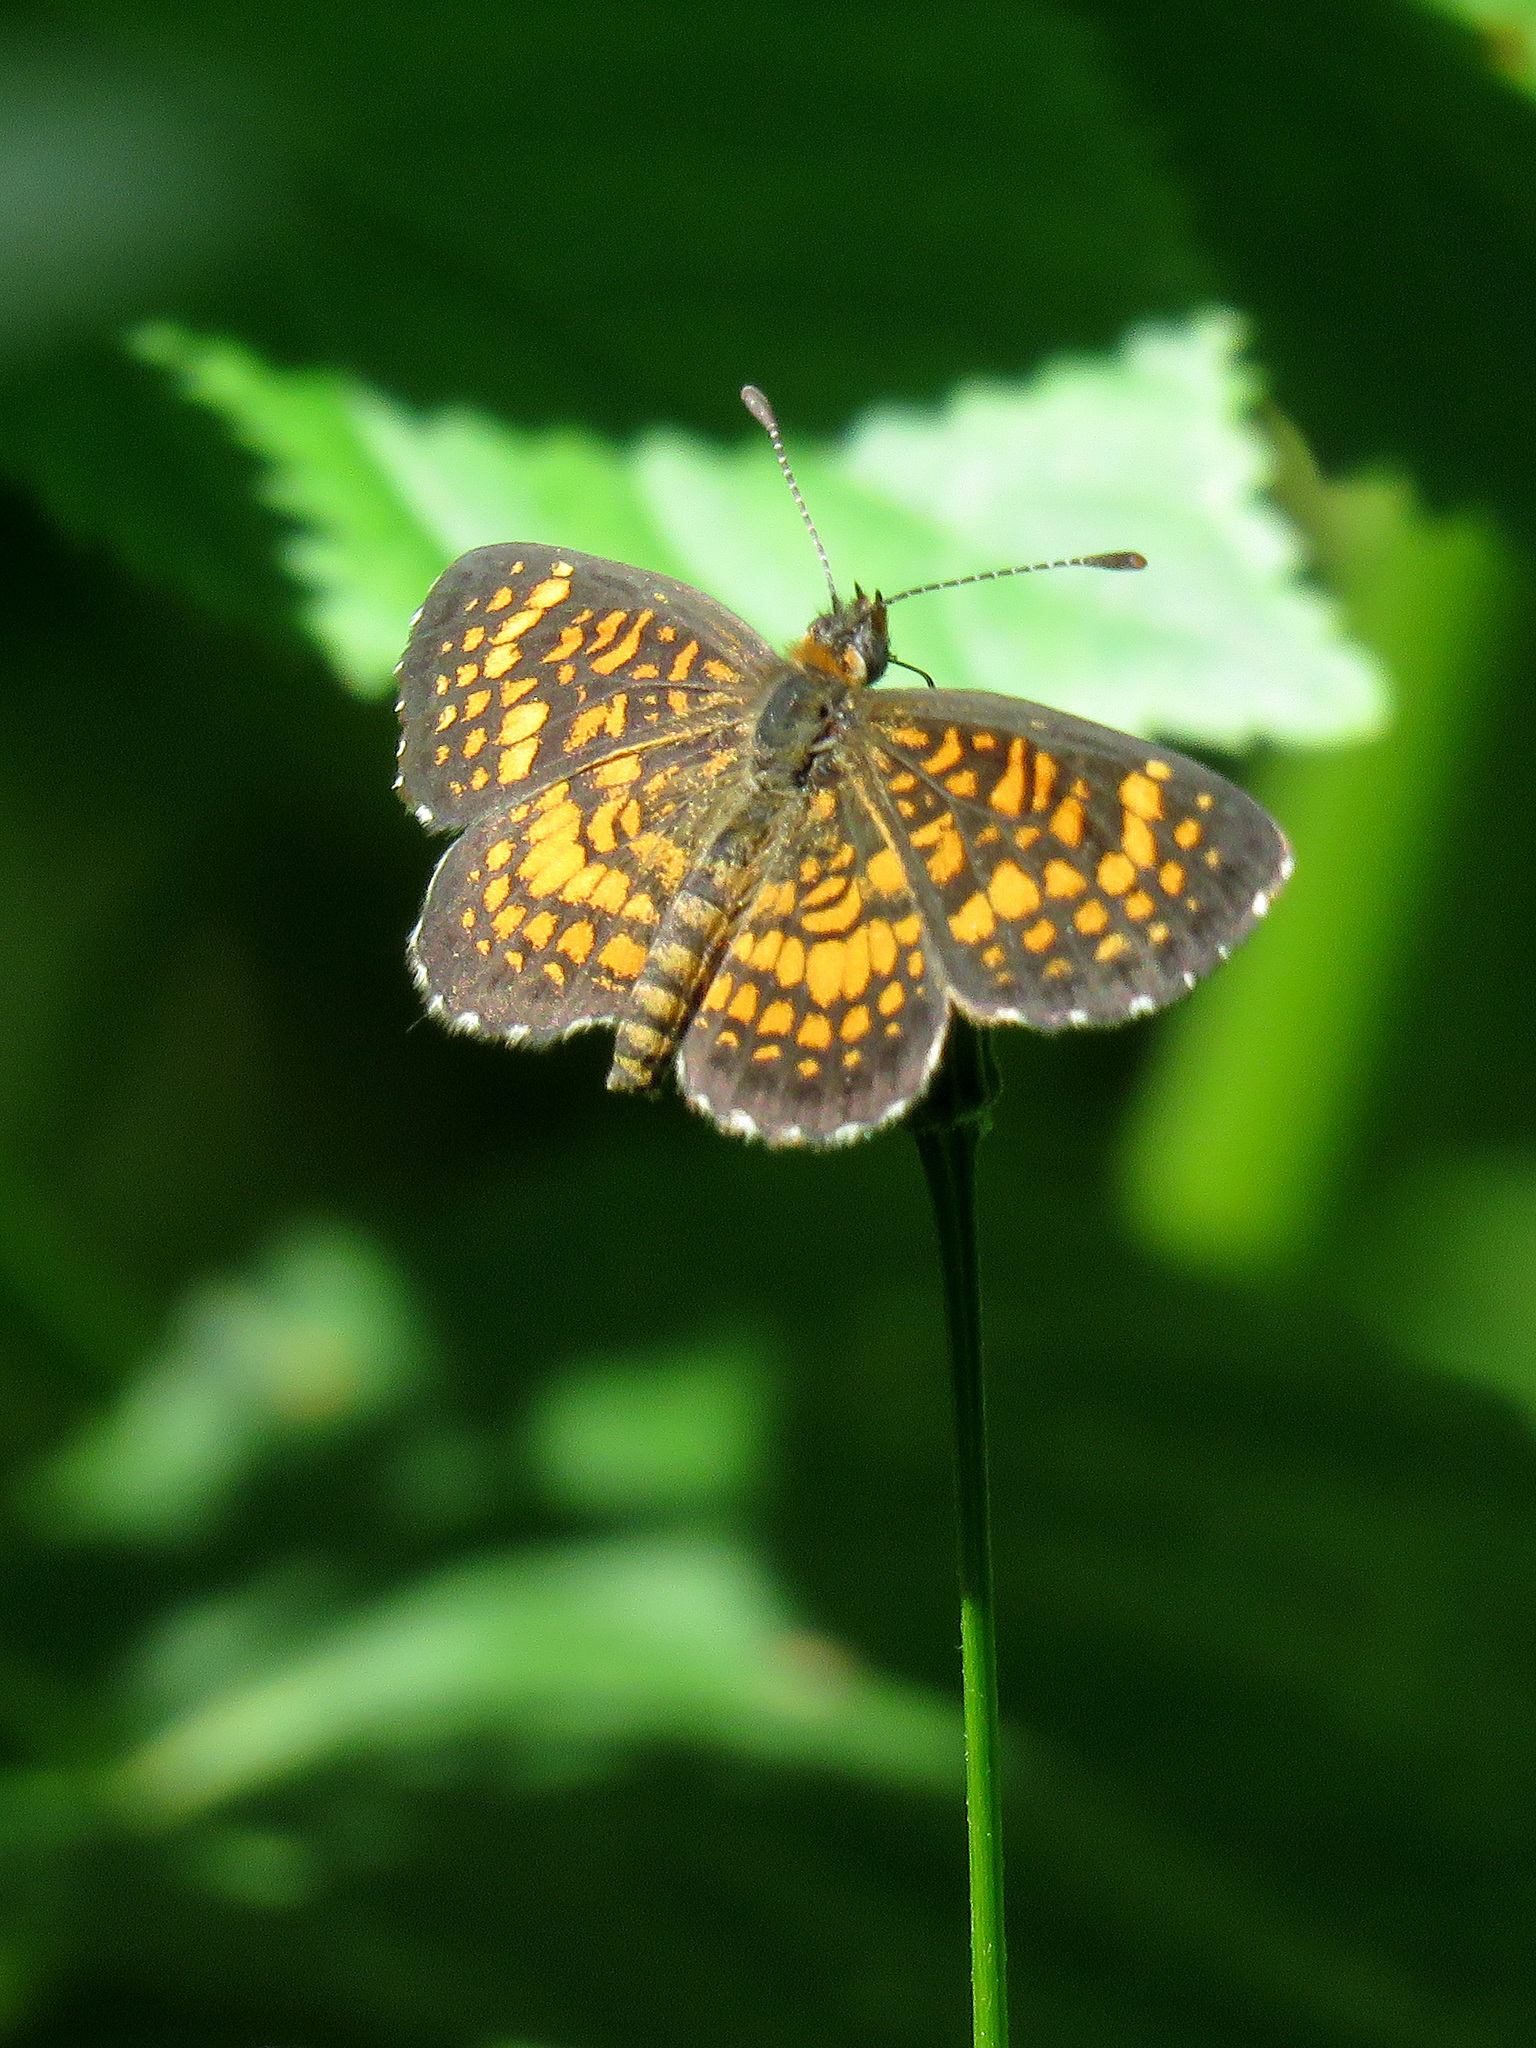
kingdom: Animalia
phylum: Arthropoda
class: Insecta
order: Lepidoptera
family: Nymphalidae
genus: Texola
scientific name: Texola
